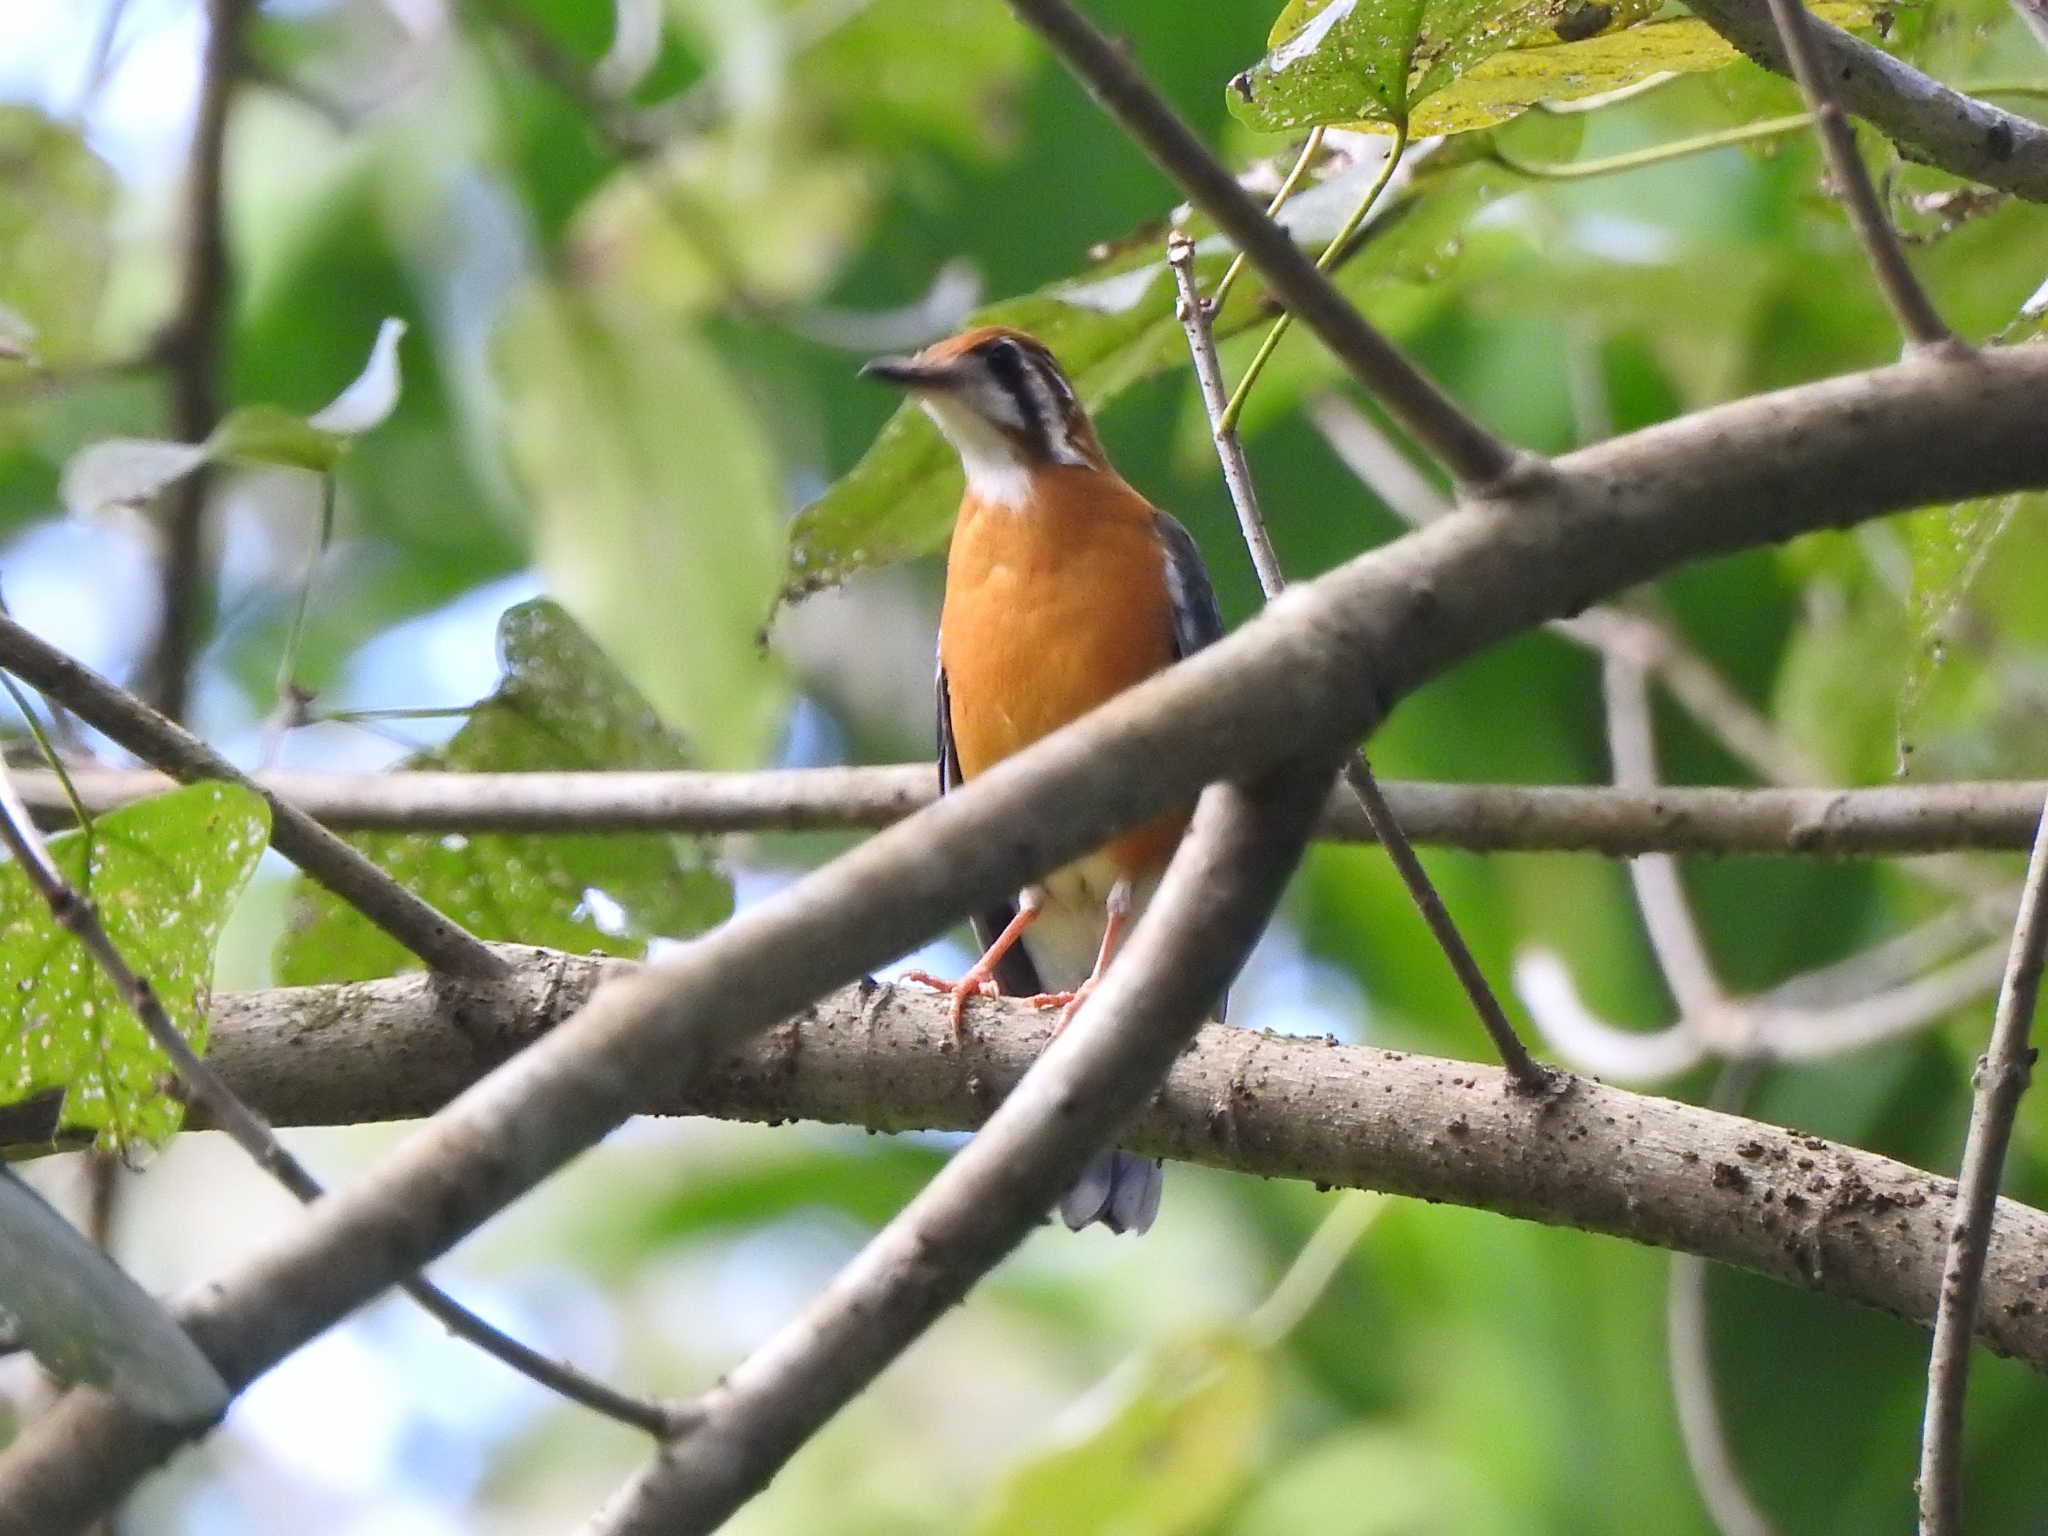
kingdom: Animalia
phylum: Chordata
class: Aves
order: Passeriformes
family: Turdidae
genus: Geokichla
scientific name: Geokichla citrina
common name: Orange-headed thrush
